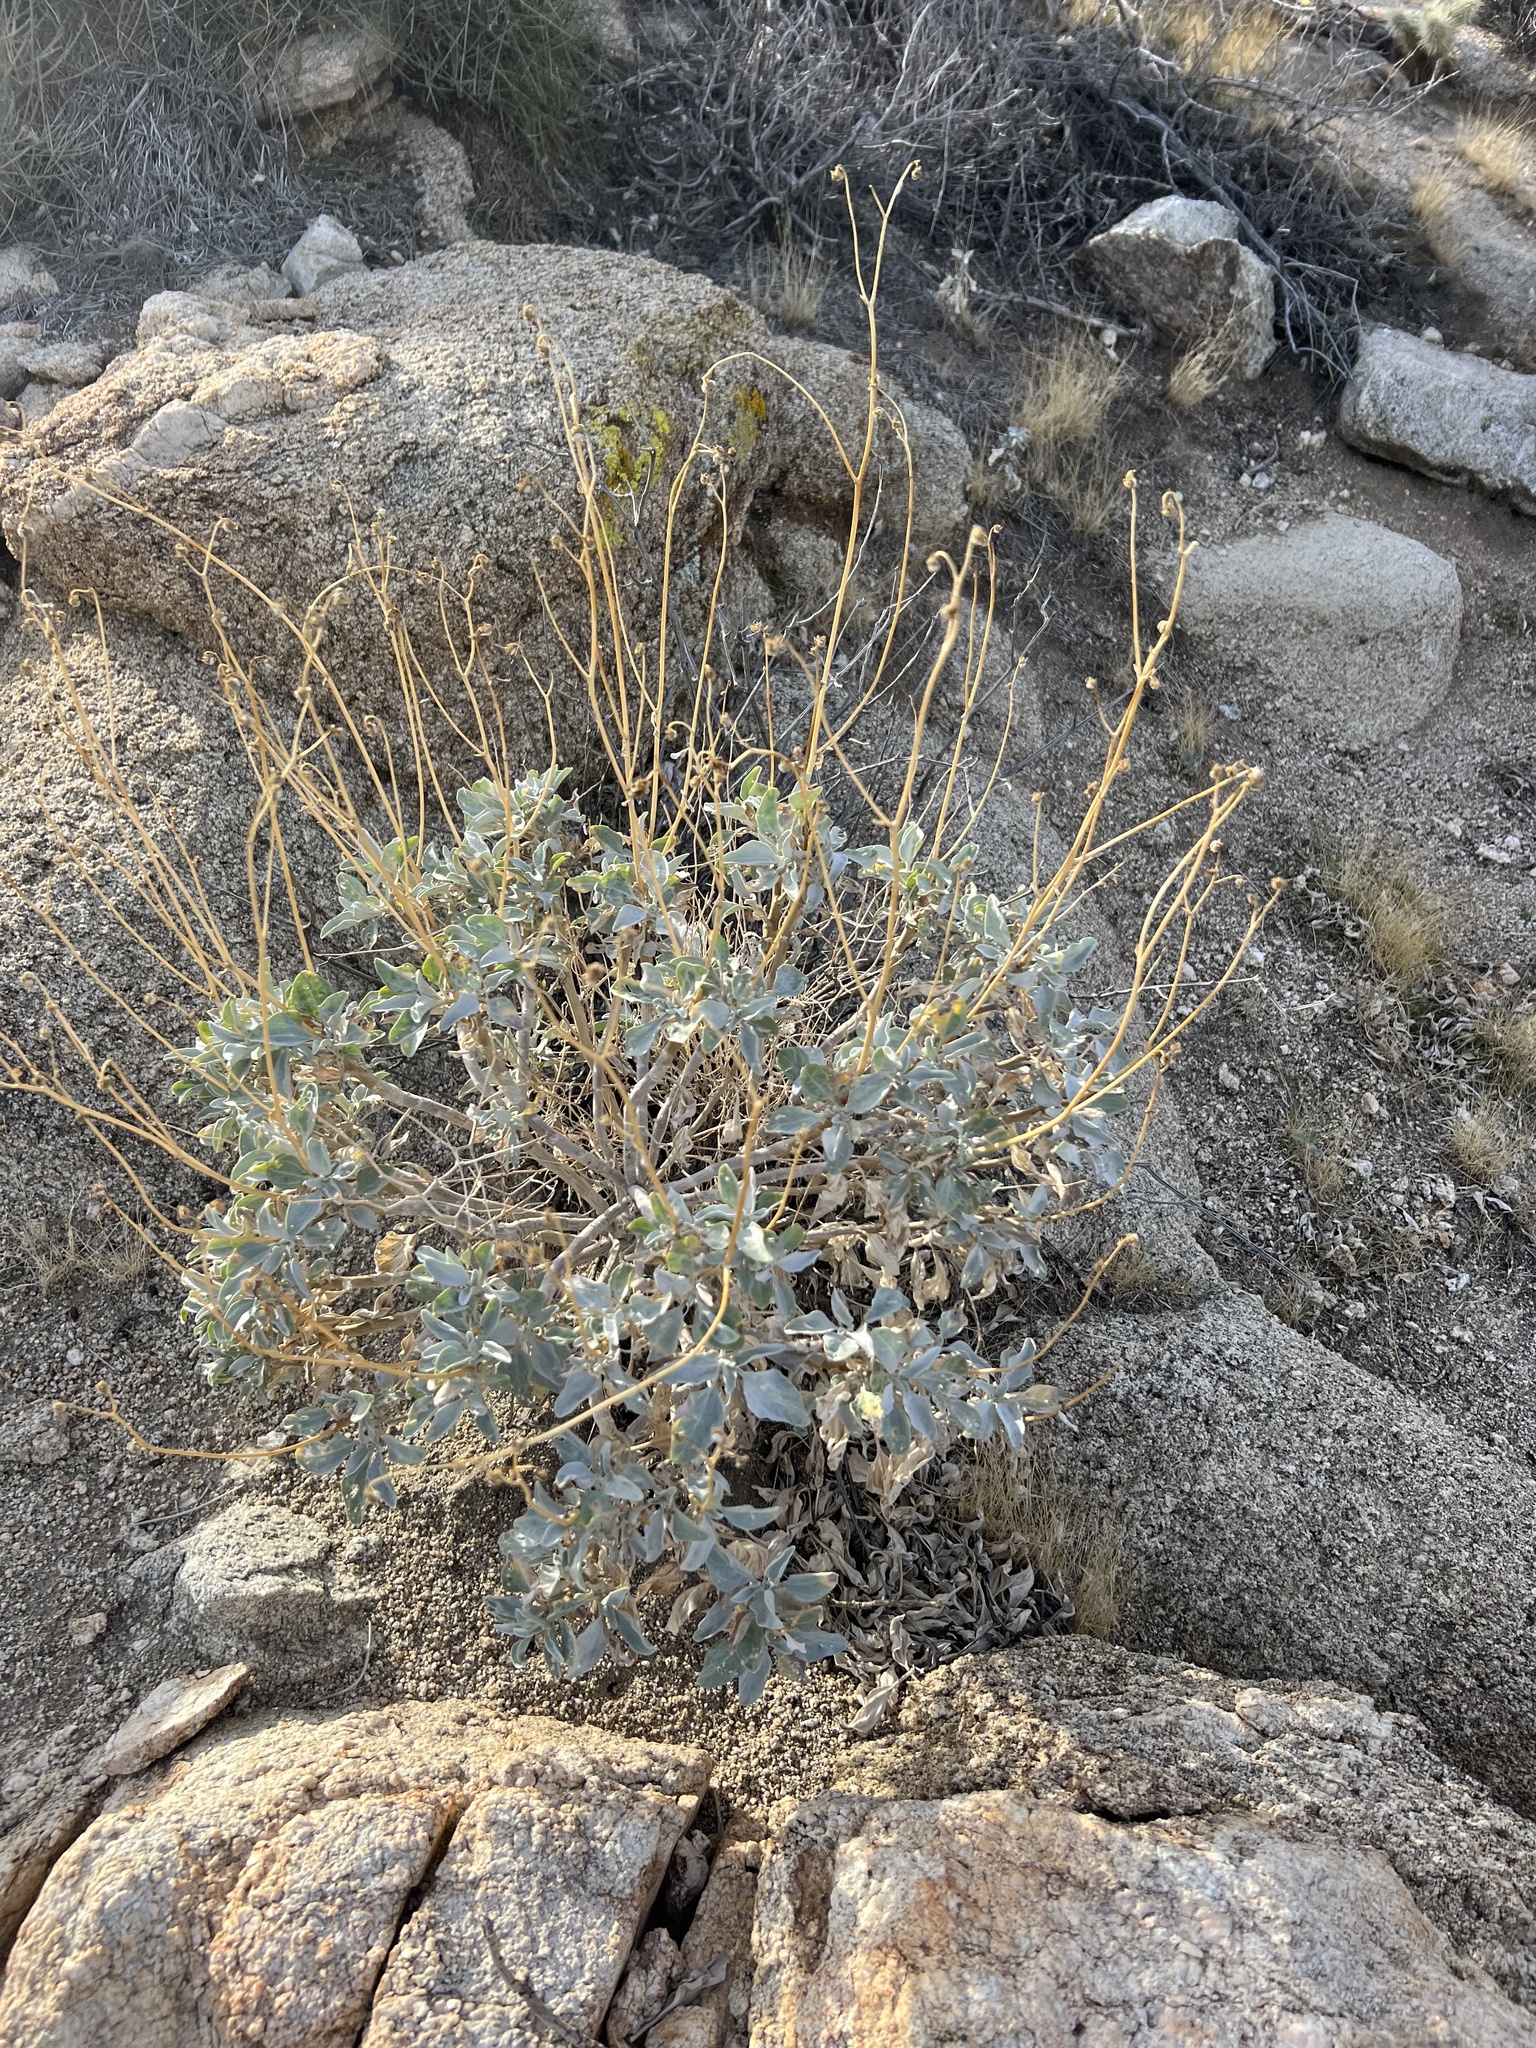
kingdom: Plantae
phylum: Tracheophyta
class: Magnoliopsida
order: Asterales
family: Asteraceae
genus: Encelia
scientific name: Encelia farinosa
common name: Brittlebush
